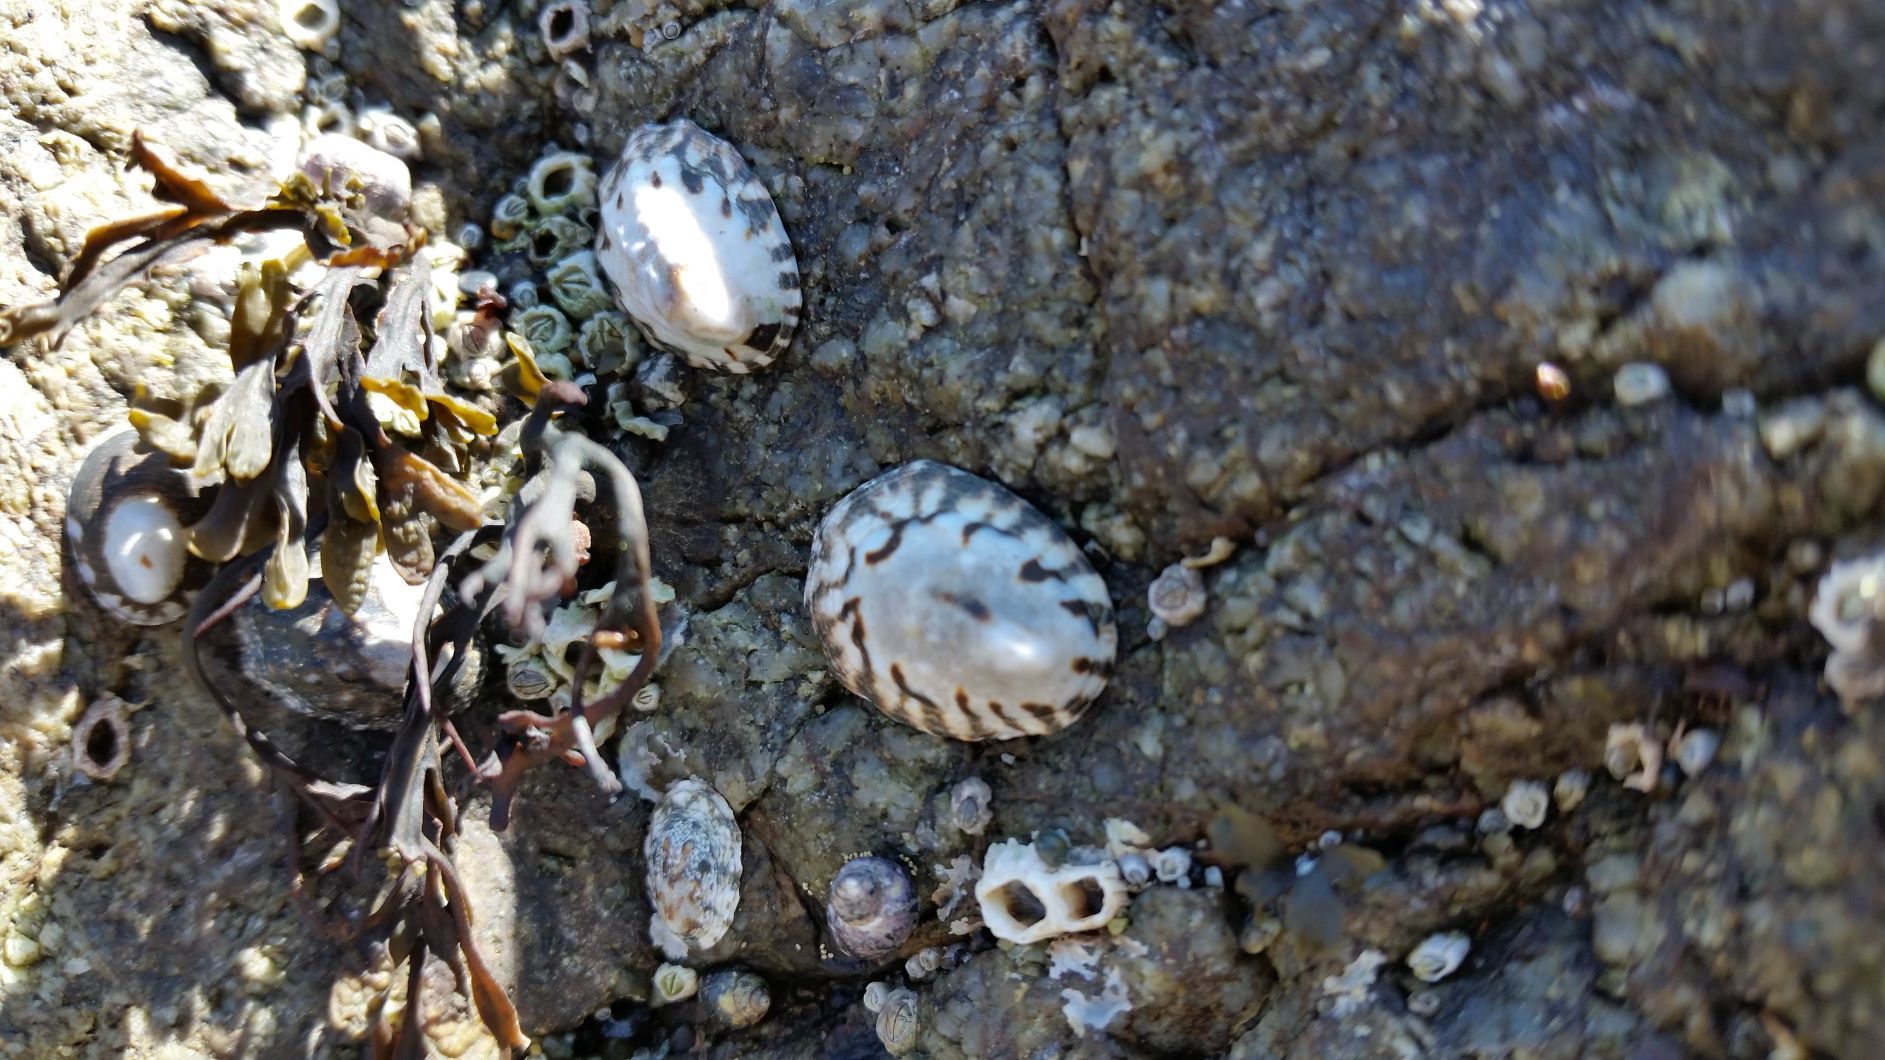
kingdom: Animalia
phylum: Mollusca
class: Gastropoda
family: Lottiidae
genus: Lottia
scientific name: Lottia digitalis
